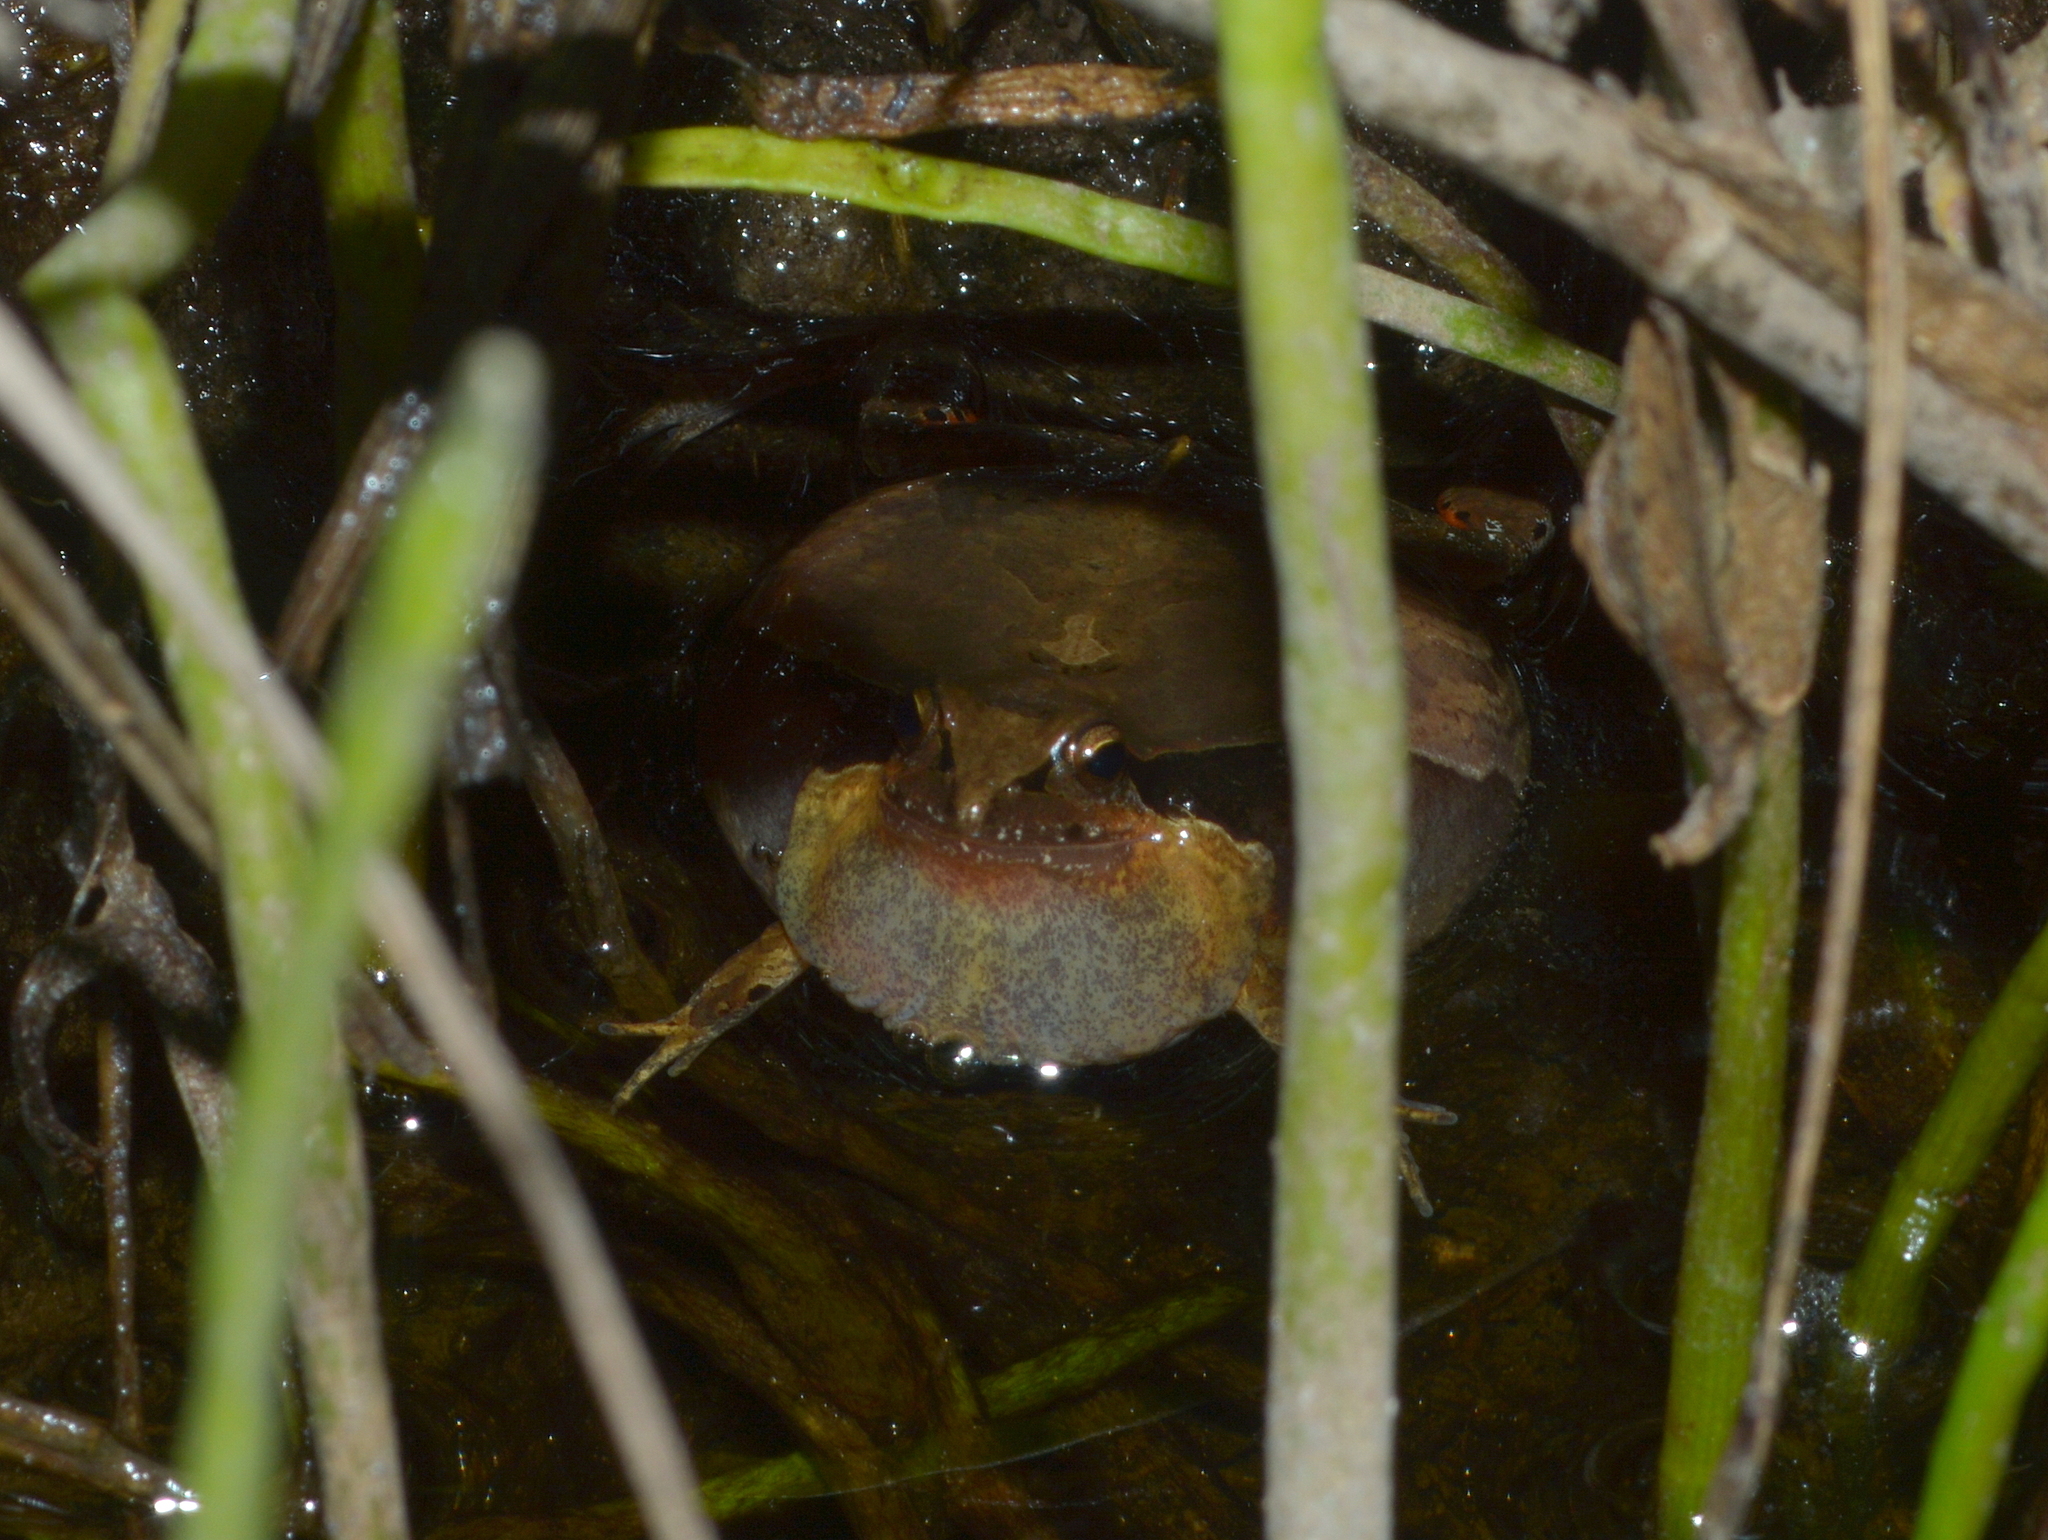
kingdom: Animalia
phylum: Chordata
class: Amphibia
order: Anura
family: Leptodactylidae
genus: Physalaemus
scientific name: Physalaemus gracilis
